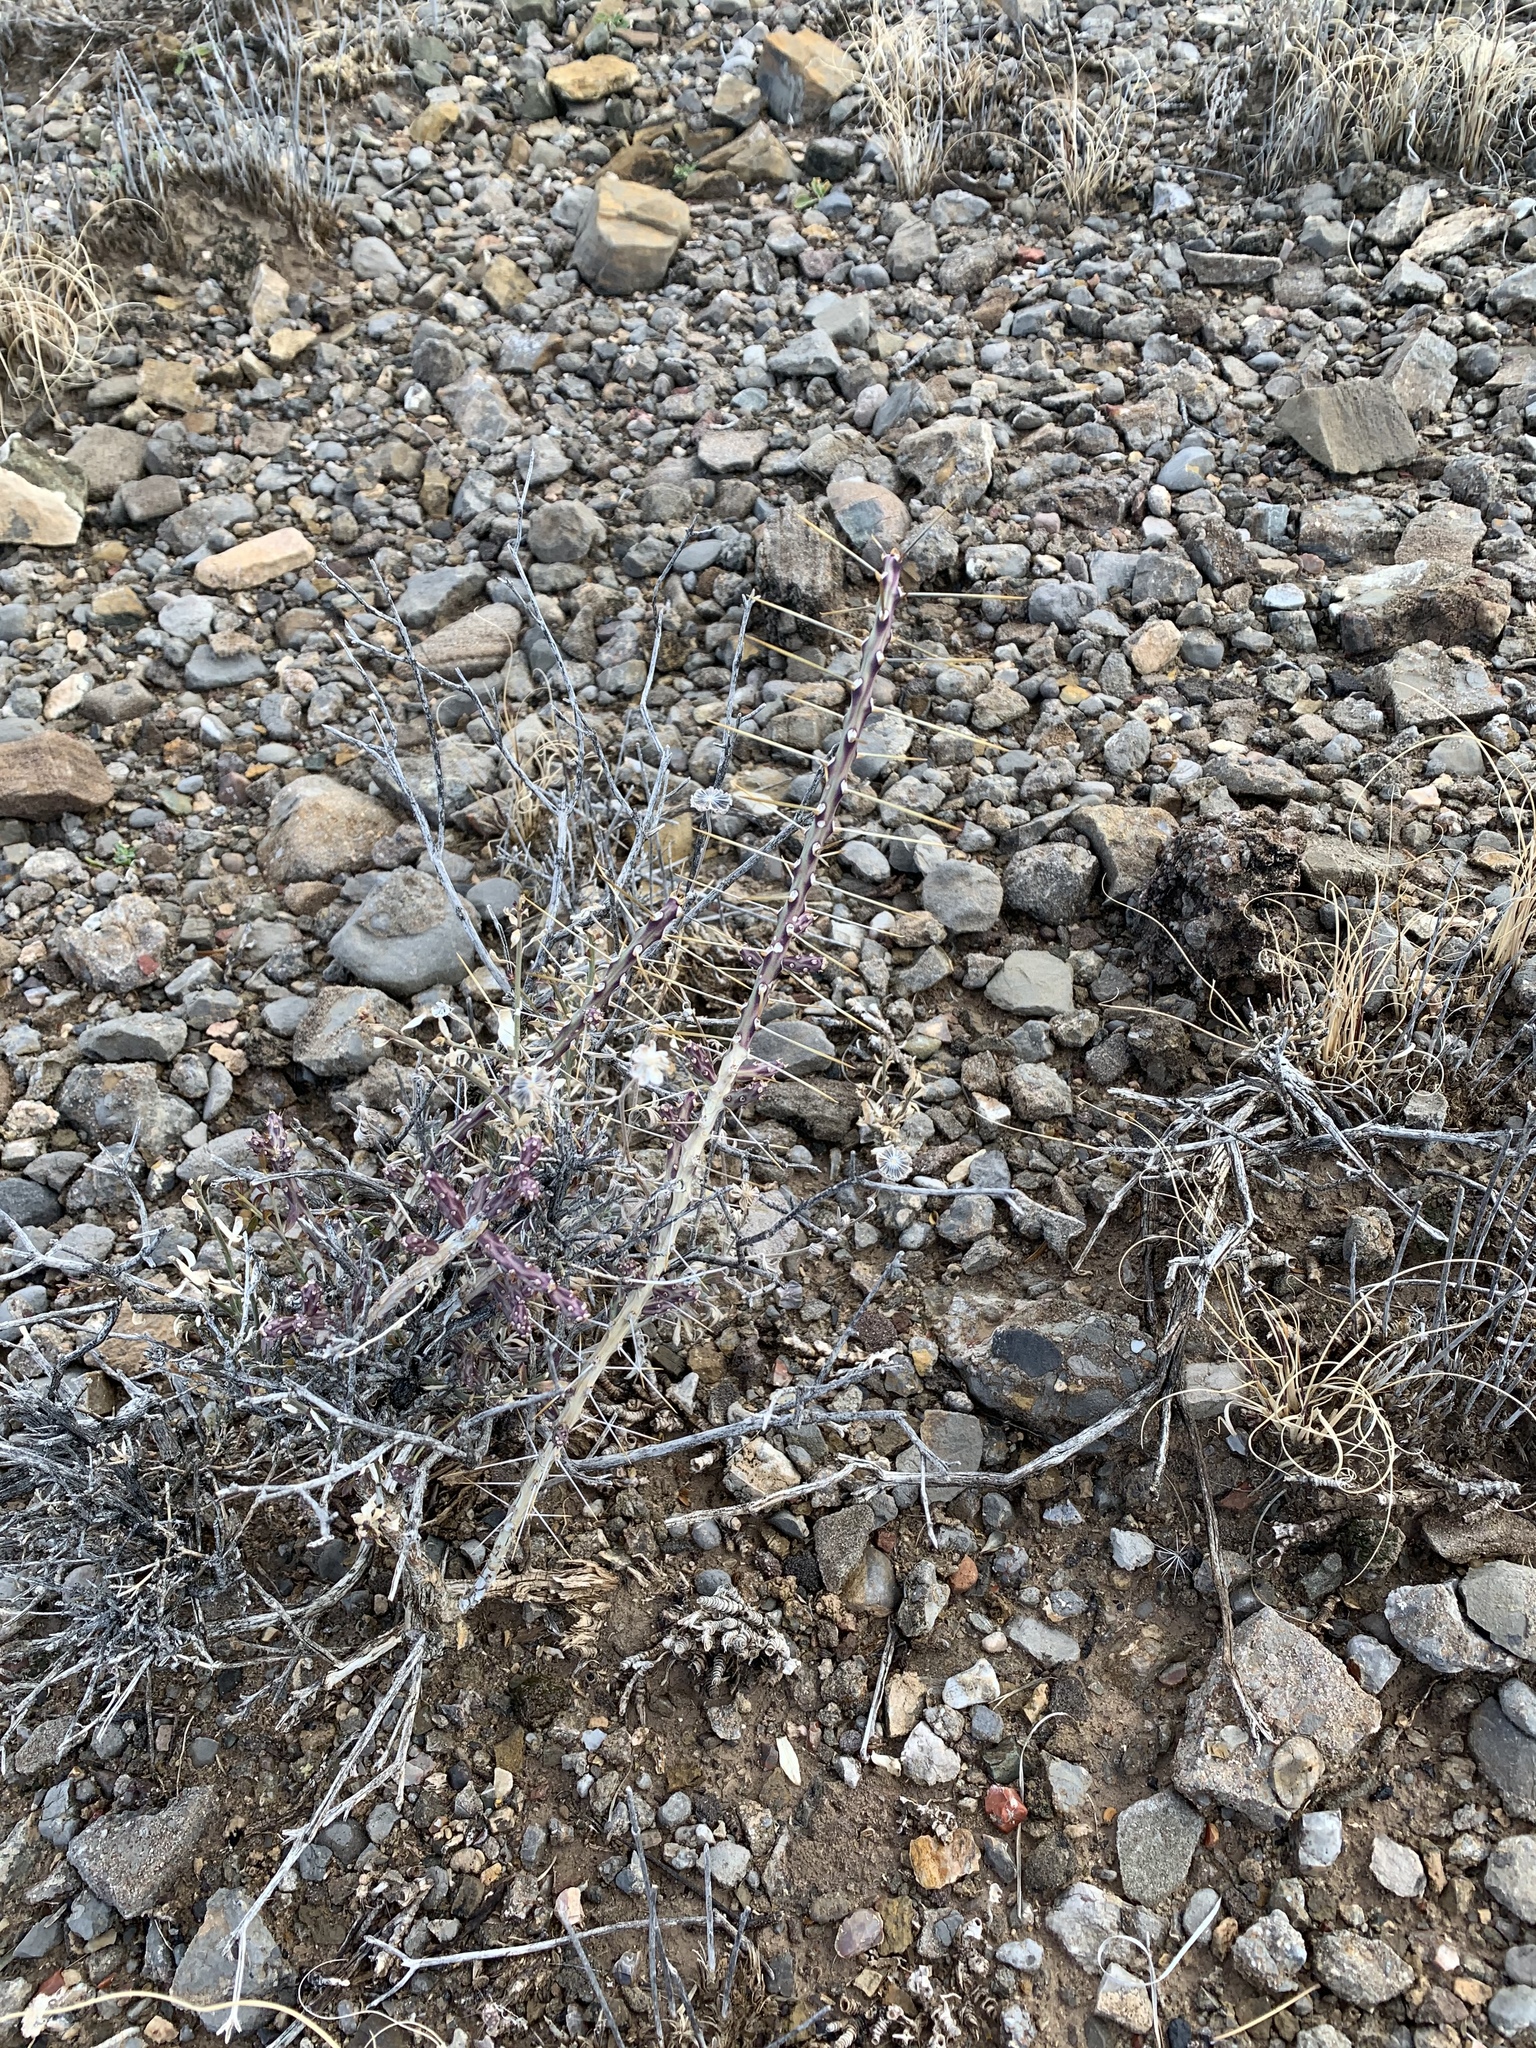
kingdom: Plantae
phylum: Tracheophyta
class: Magnoliopsida
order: Caryophyllales
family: Cactaceae
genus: Cylindropuntia
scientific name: Cylindropuntia leptocaulis
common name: Christmas cactus
